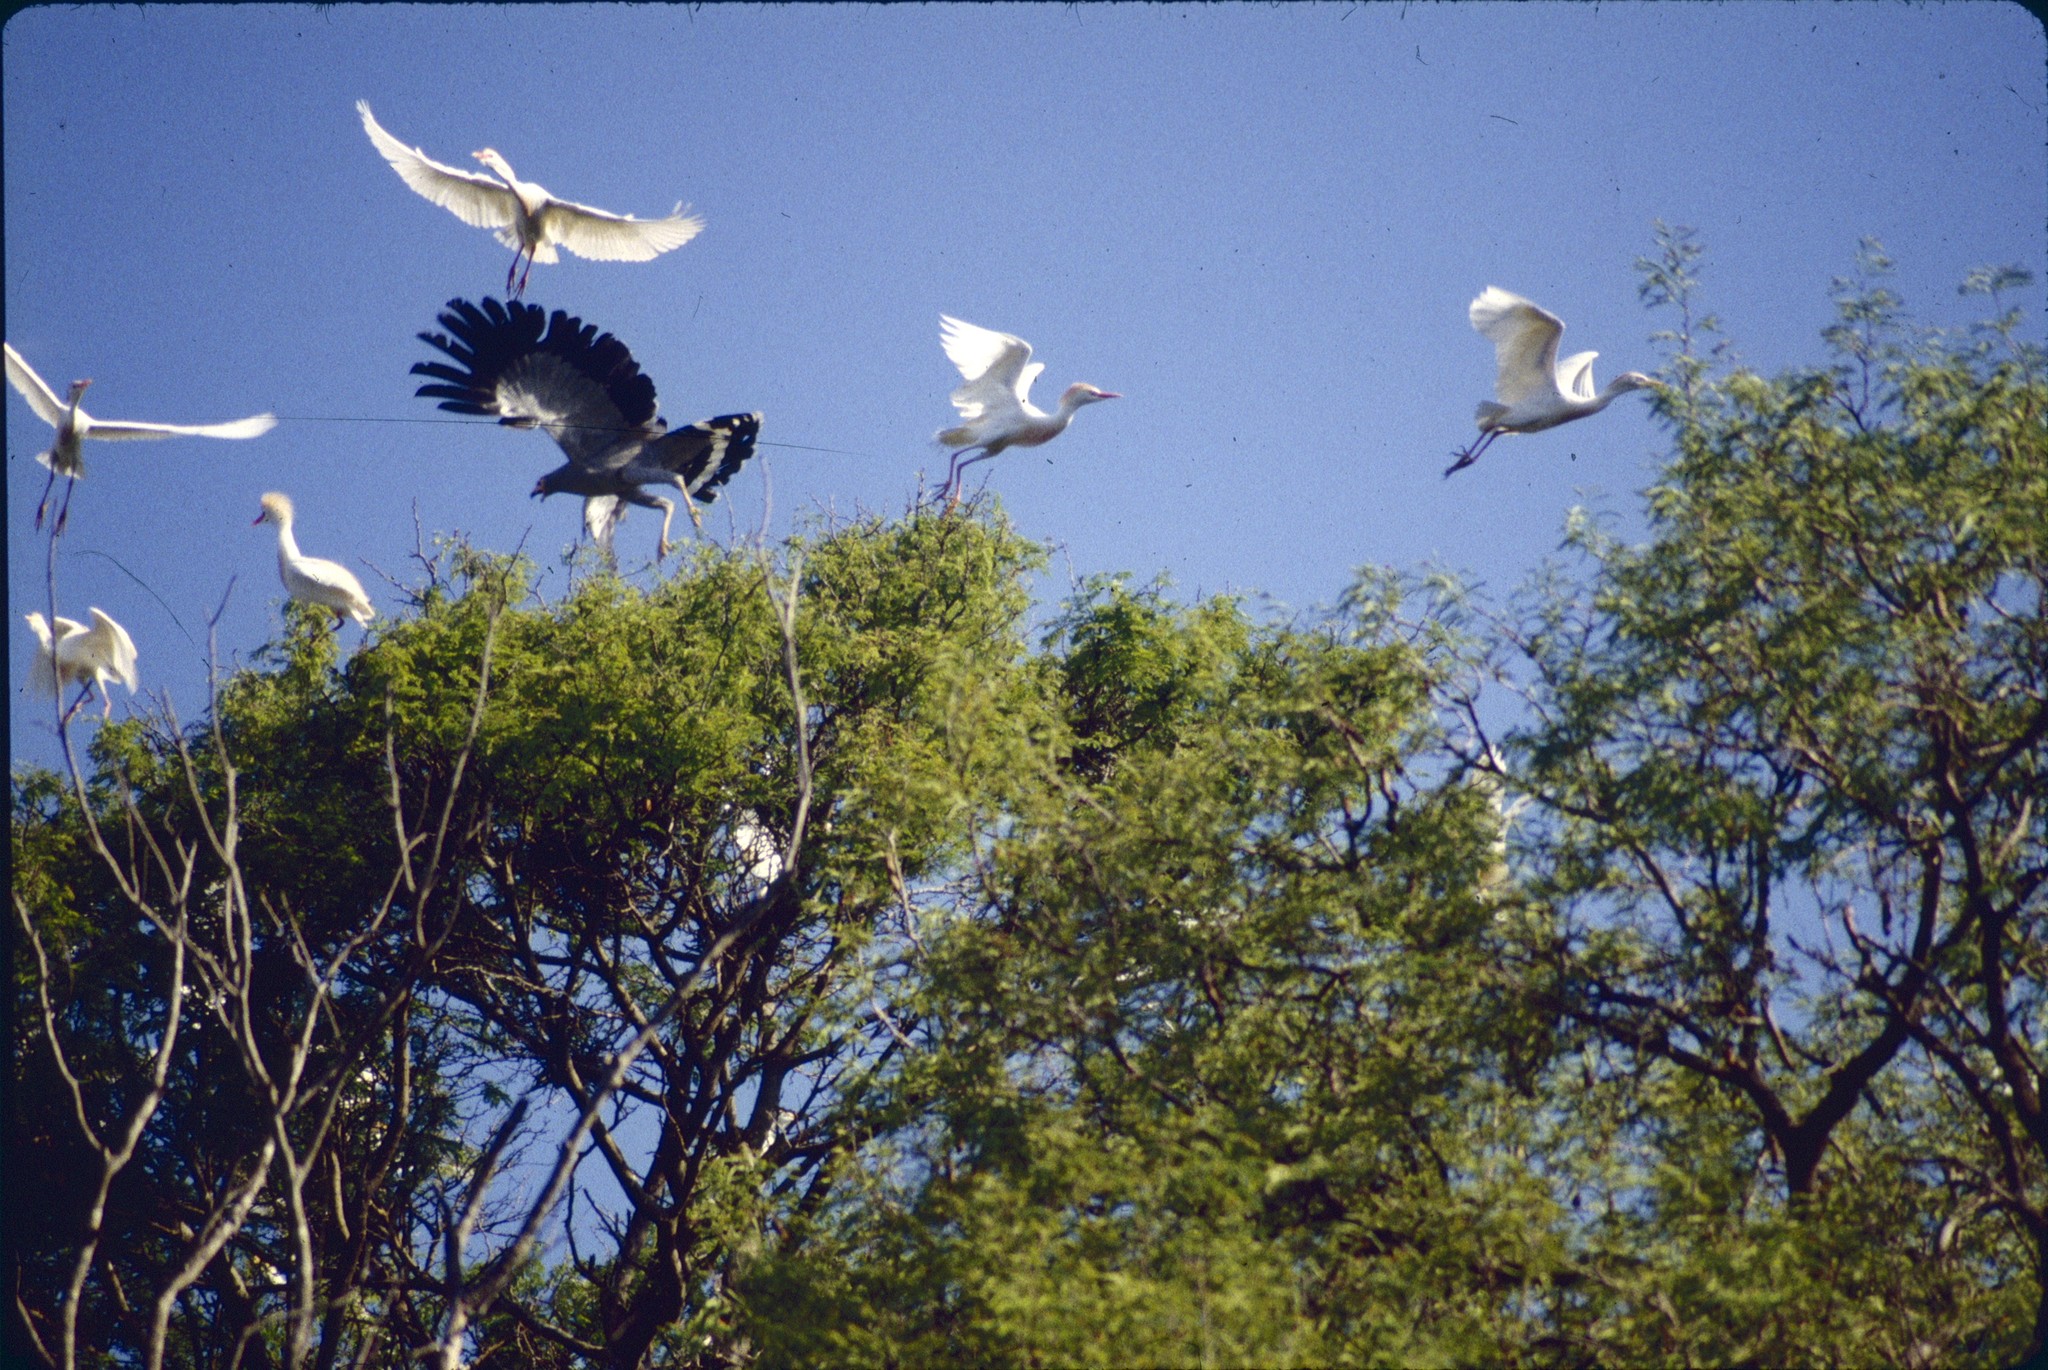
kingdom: Animalia
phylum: Chordata
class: Aves
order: Pelecaniformes
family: Ardeidae
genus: Bubulcus
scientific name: Bubulcus ibis
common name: Cattle egret
